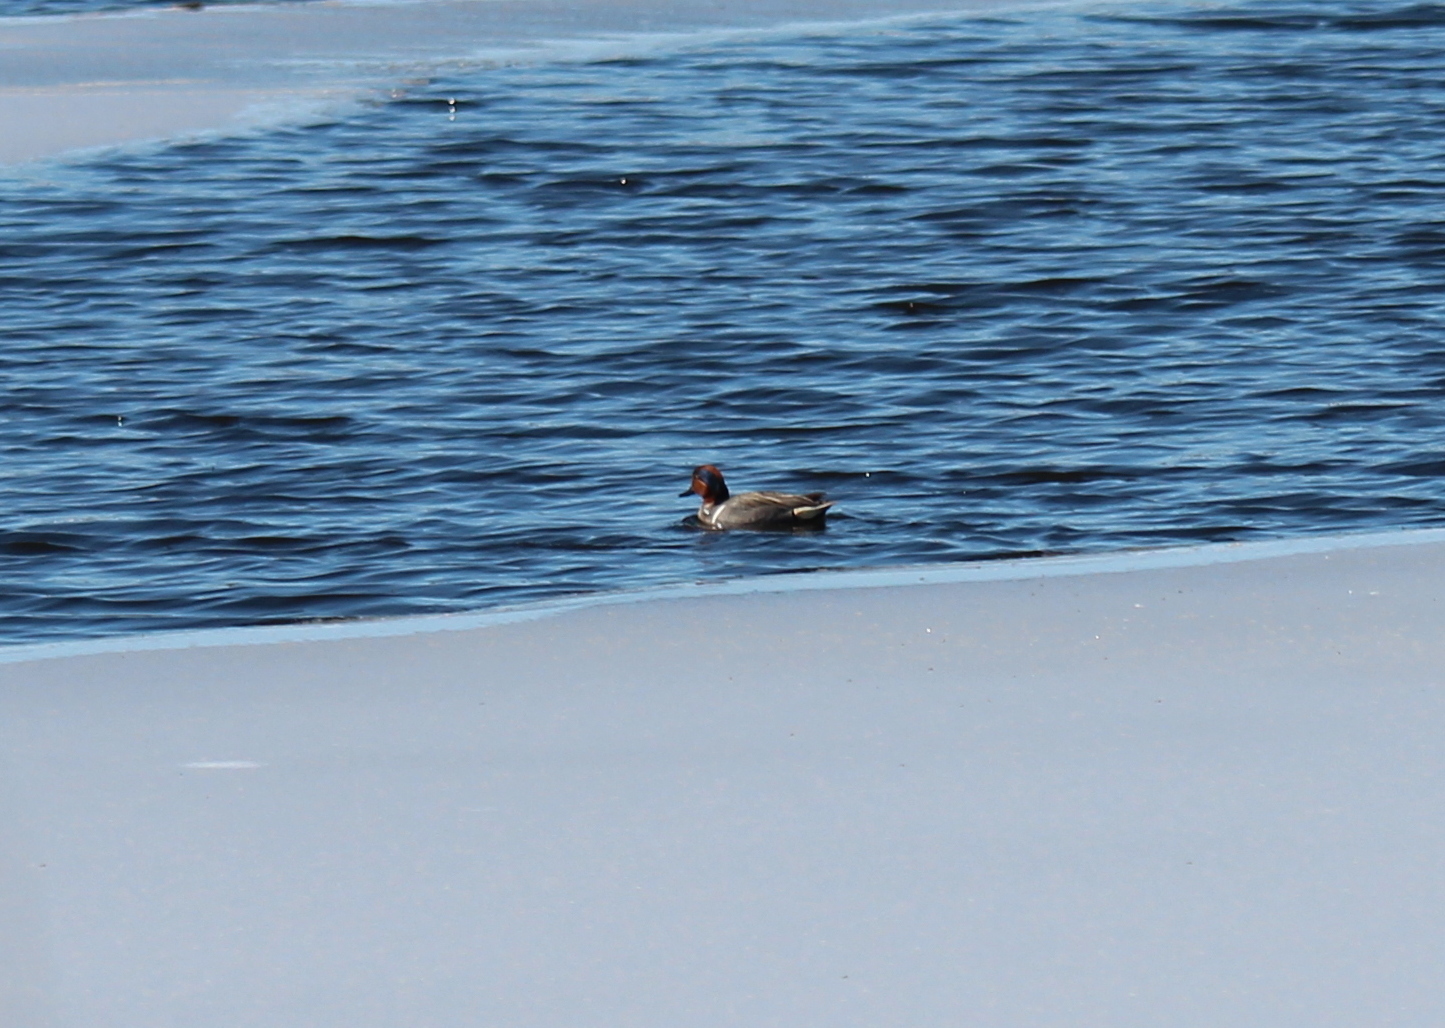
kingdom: Animalia
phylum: Chordata
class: Aves
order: Anseriformes
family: Anatidae
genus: Anas
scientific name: Anas carolinensis
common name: Green-winged teal
